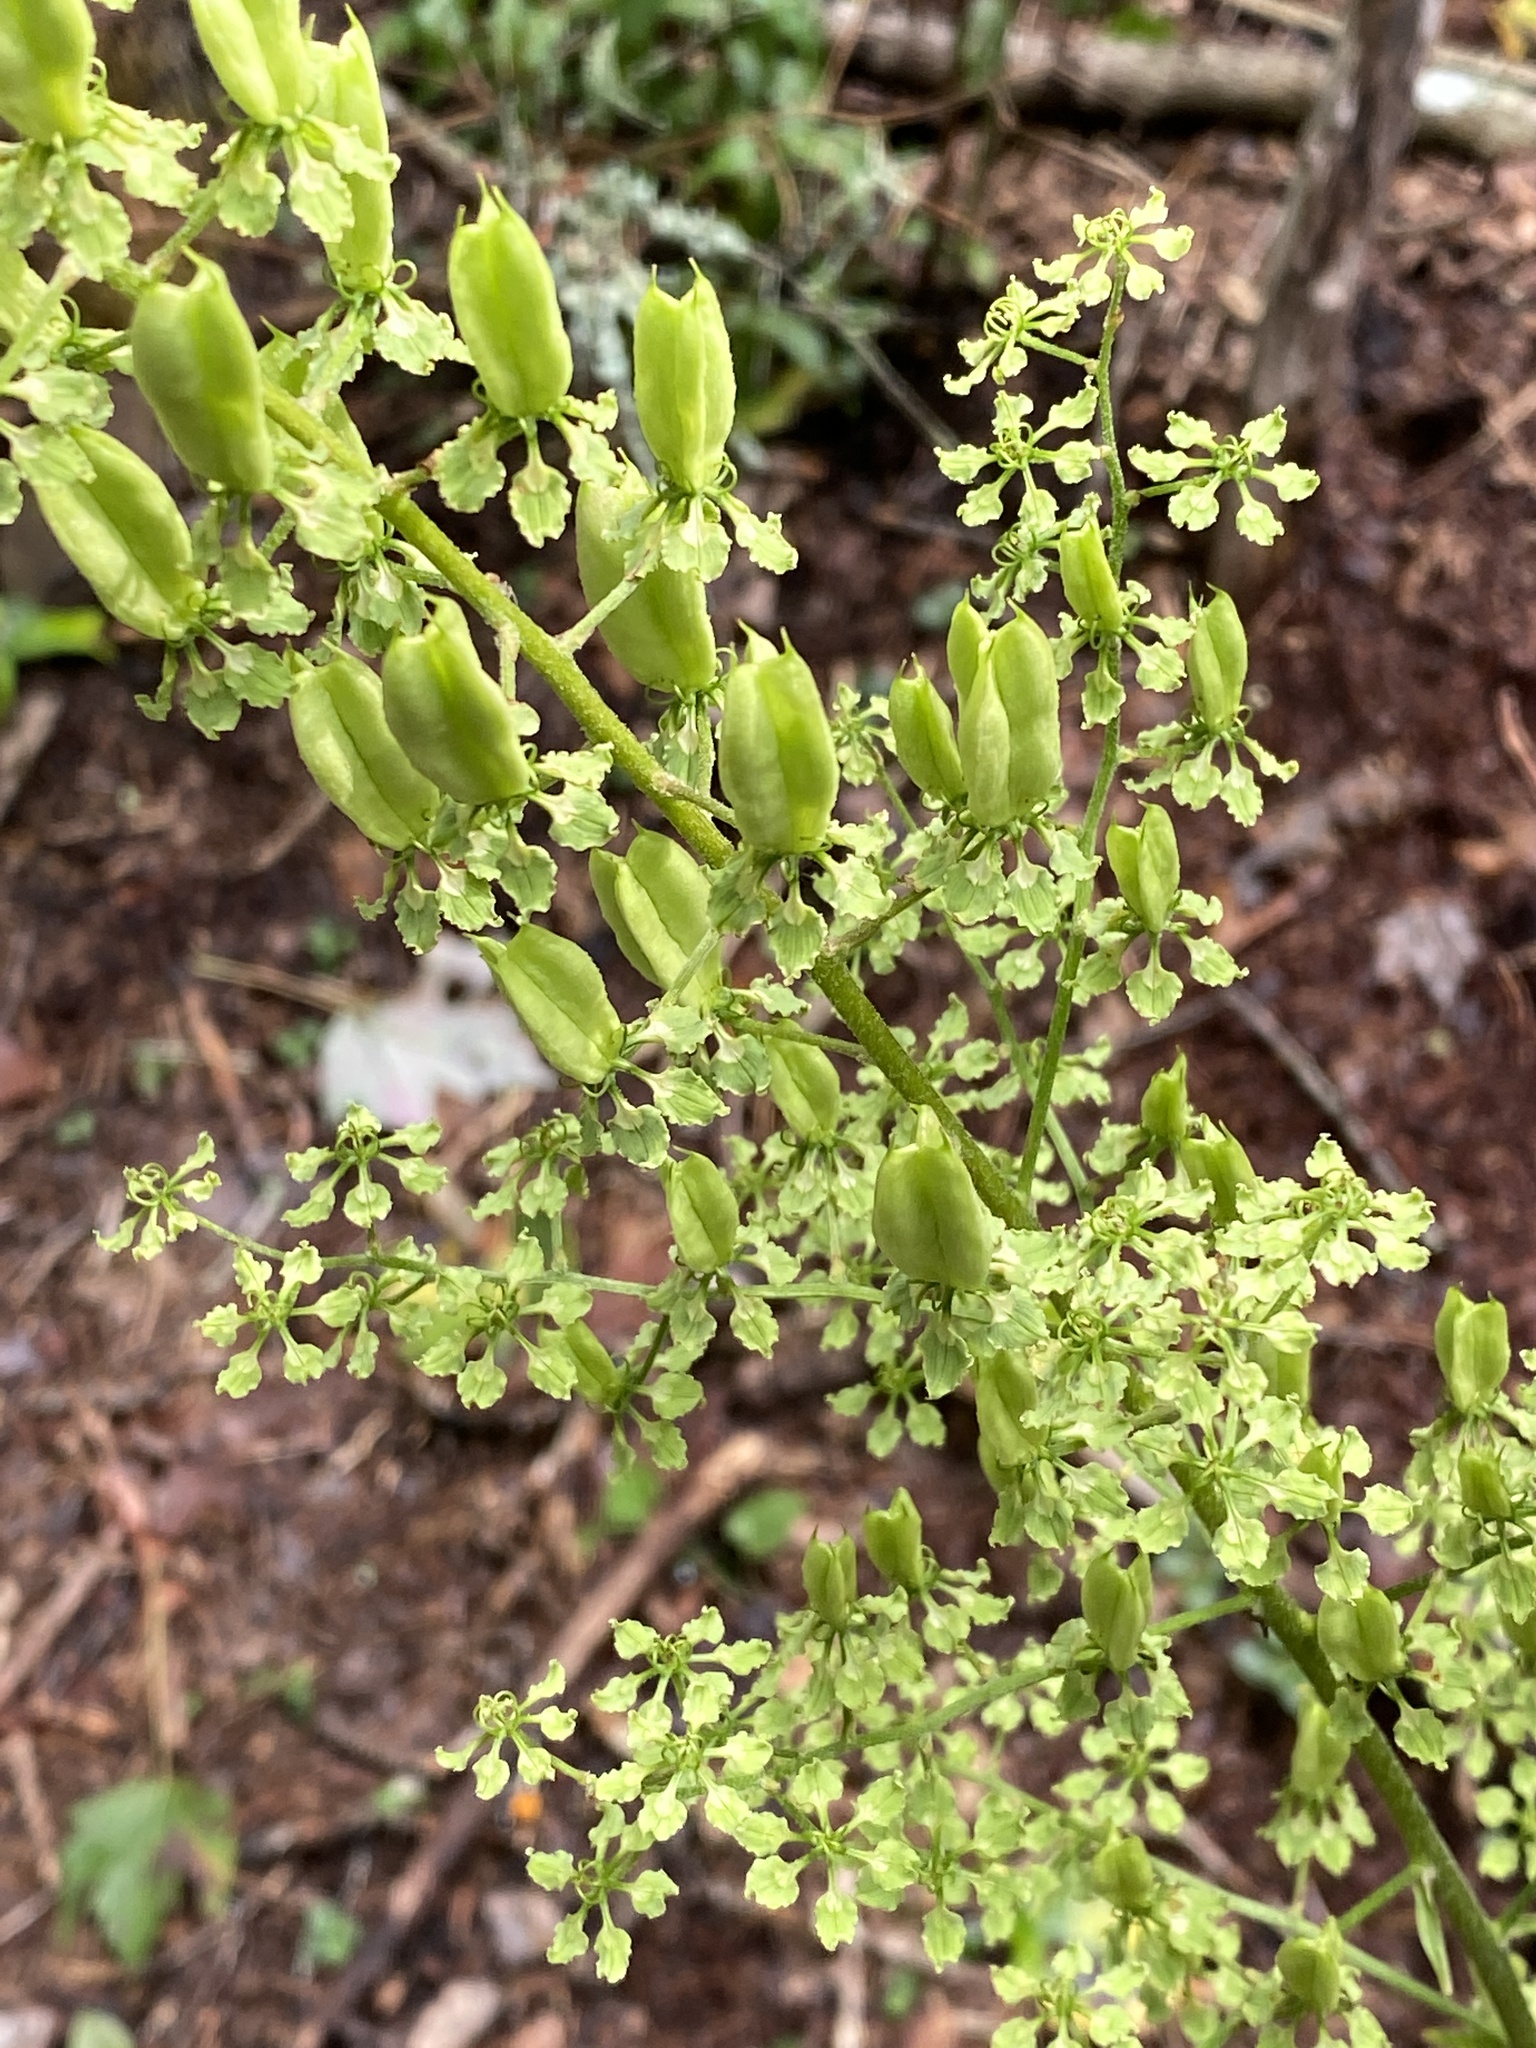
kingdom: Plantae
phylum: Tracheophyta
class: Liliopsida
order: Liliales
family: Melanthiaceae
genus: Veratrum
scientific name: Veratrum hybridum
